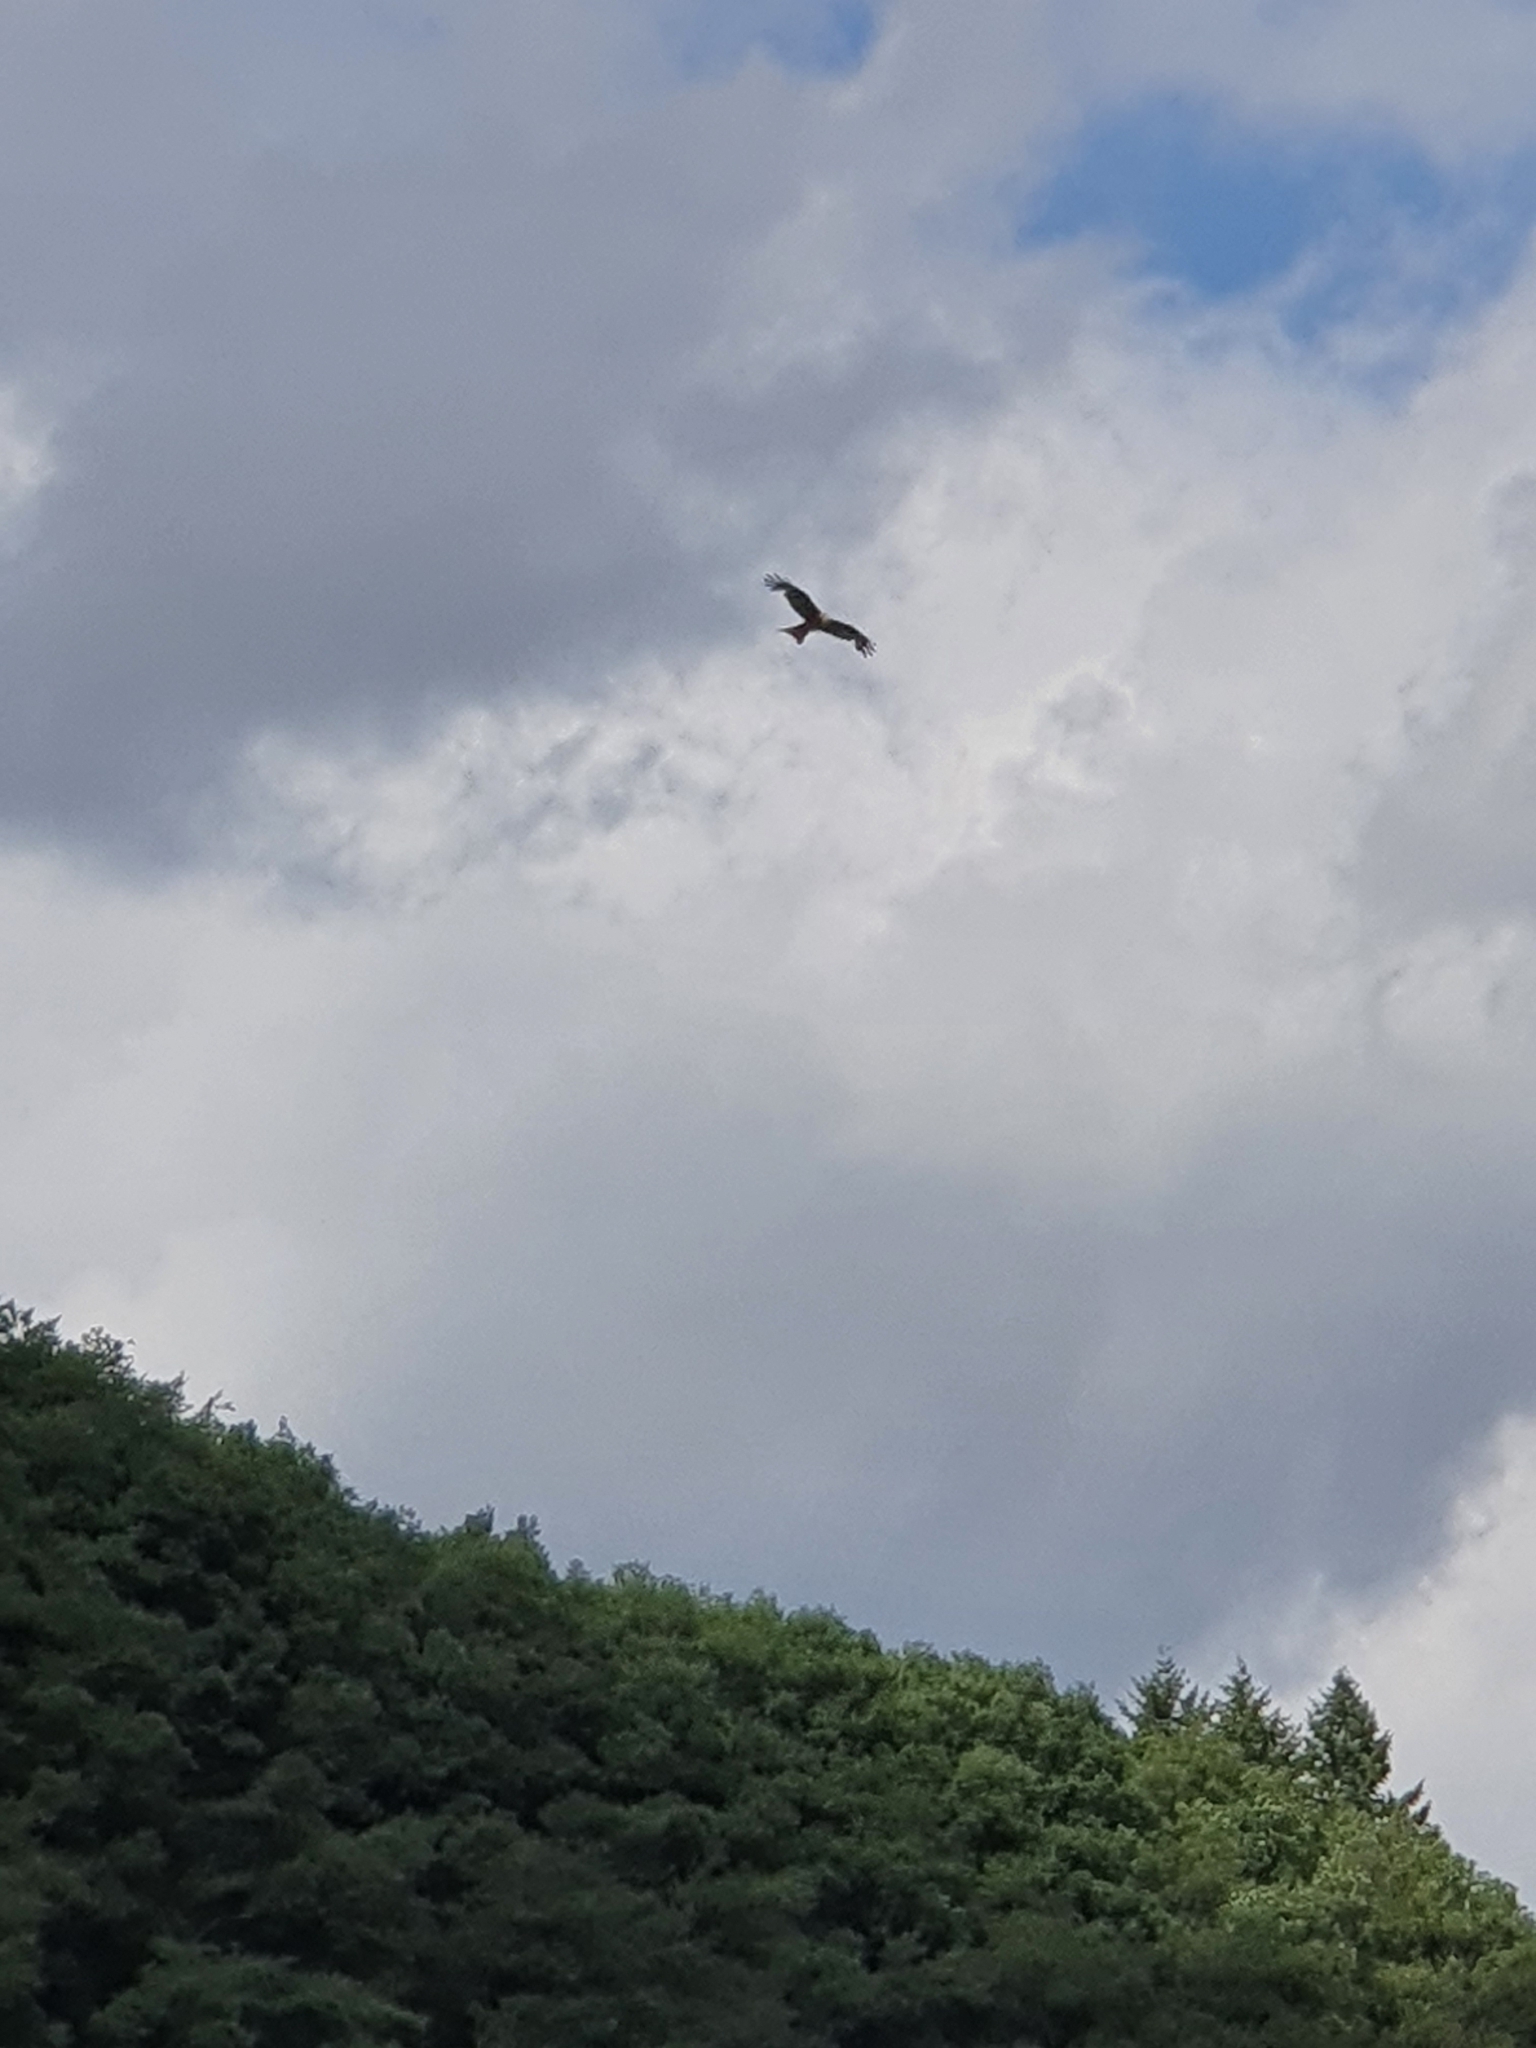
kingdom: Animalia
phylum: Chordata
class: Aves
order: Accipitriformes
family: Accipitridae
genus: Milvus
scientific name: Milvus milvus
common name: Red kite
